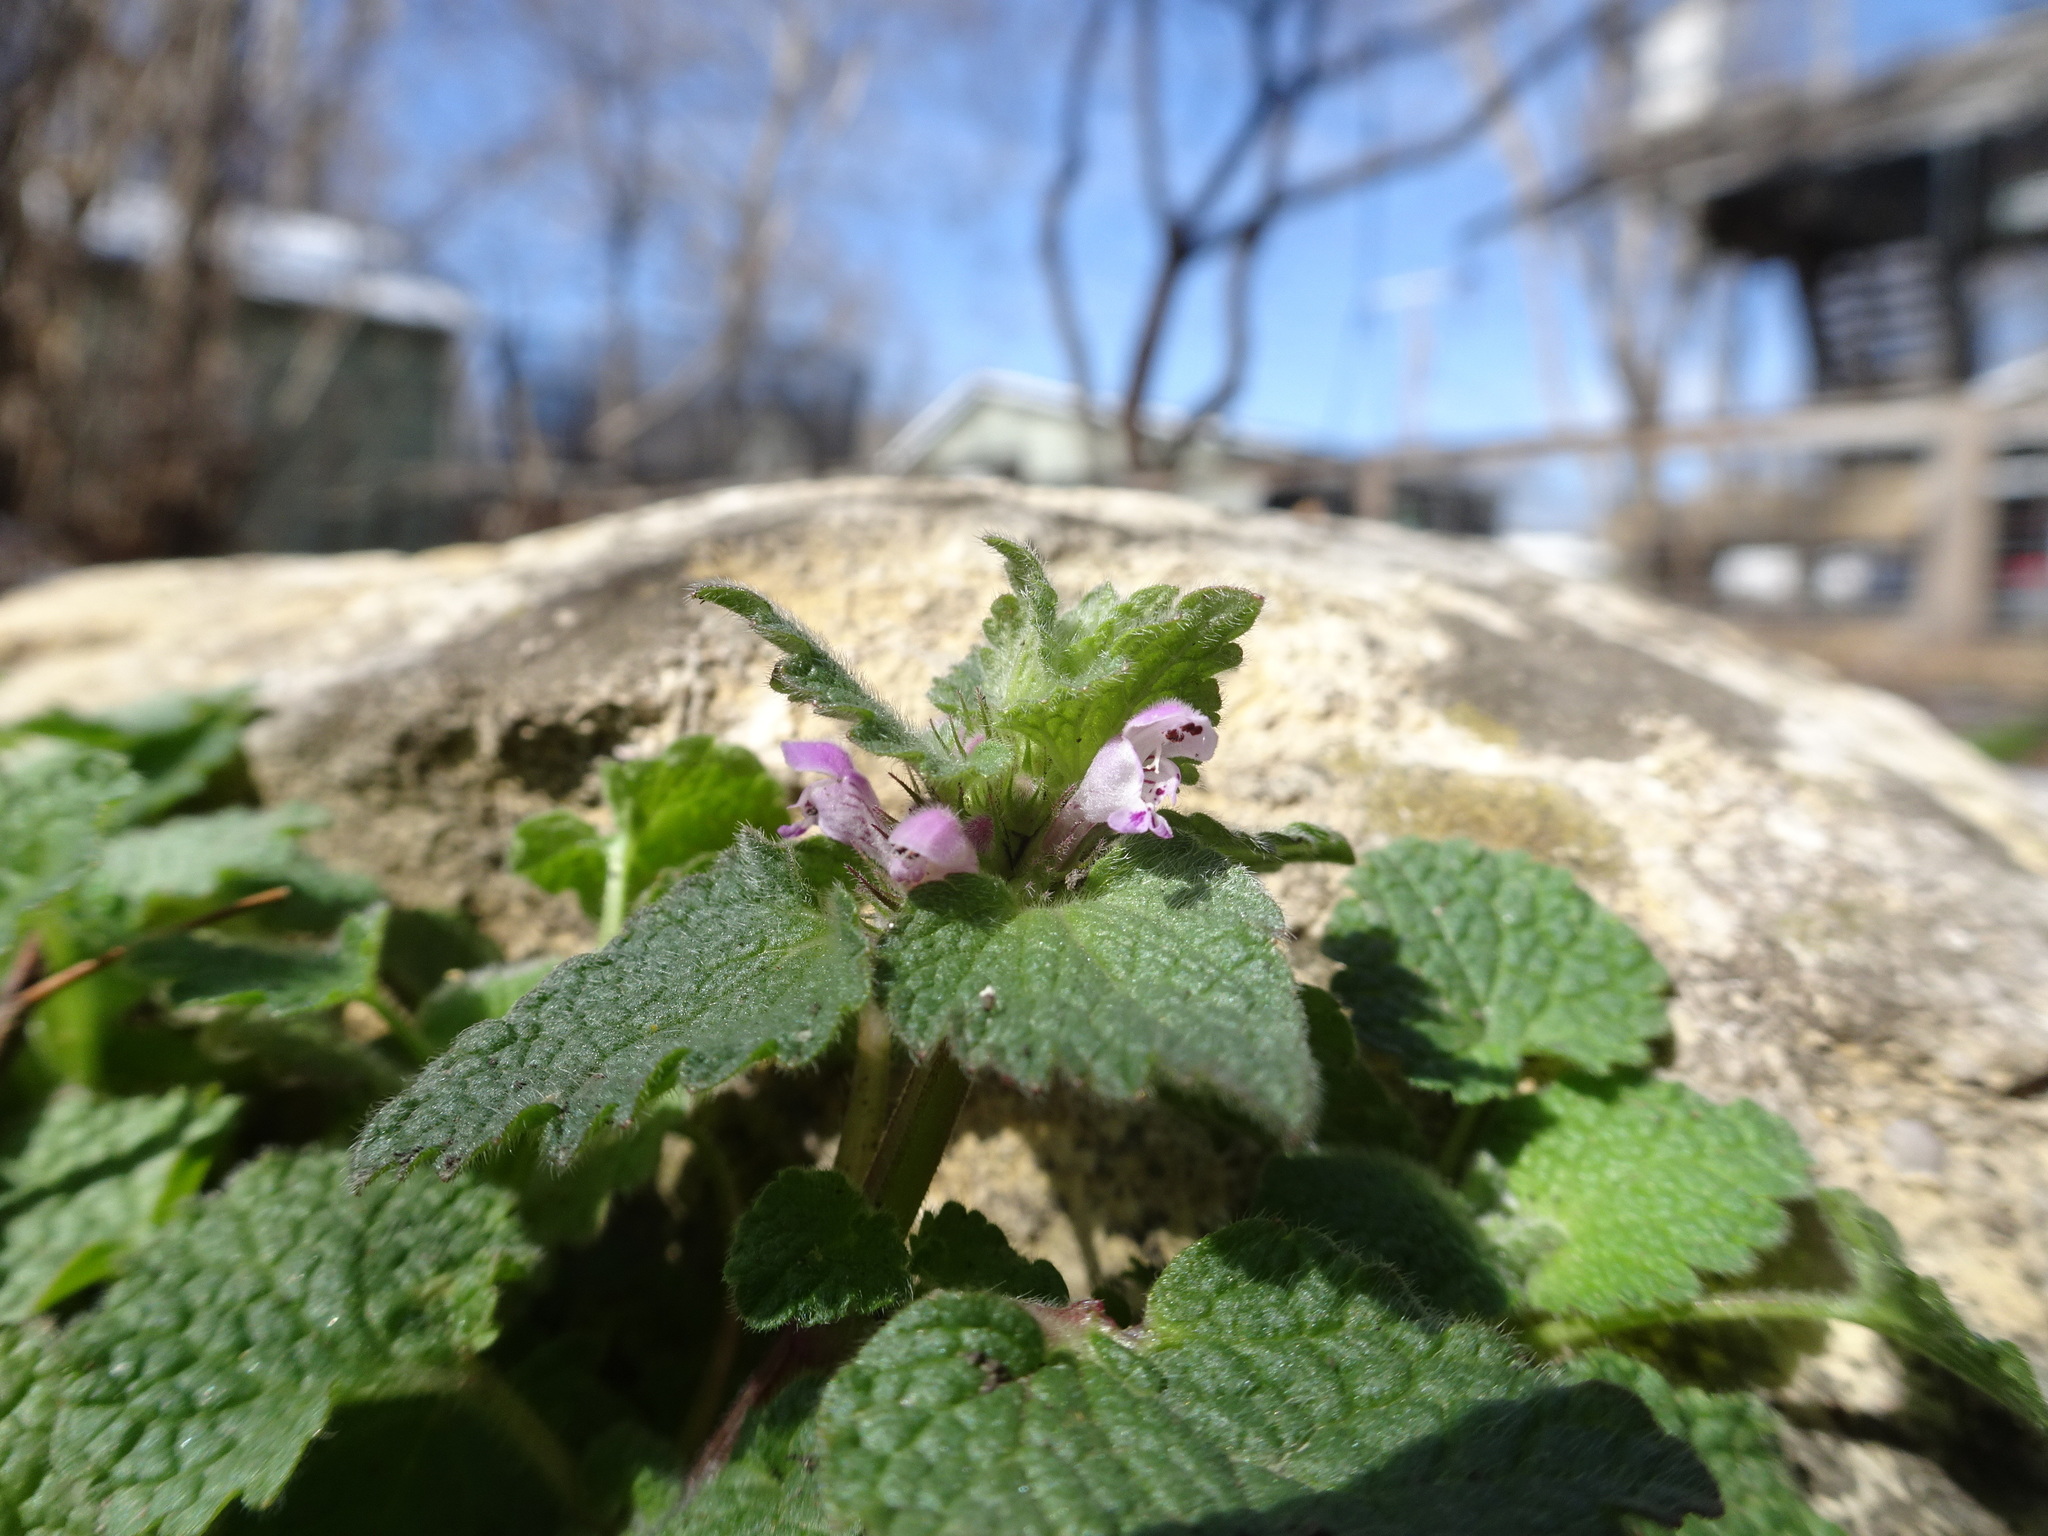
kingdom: Plantae
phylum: Tracheophyta
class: Magnoliopsida
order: Lamiales
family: Lamiaceae
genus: Lamium
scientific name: Lamium purpureum
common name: Red dead-nettle
